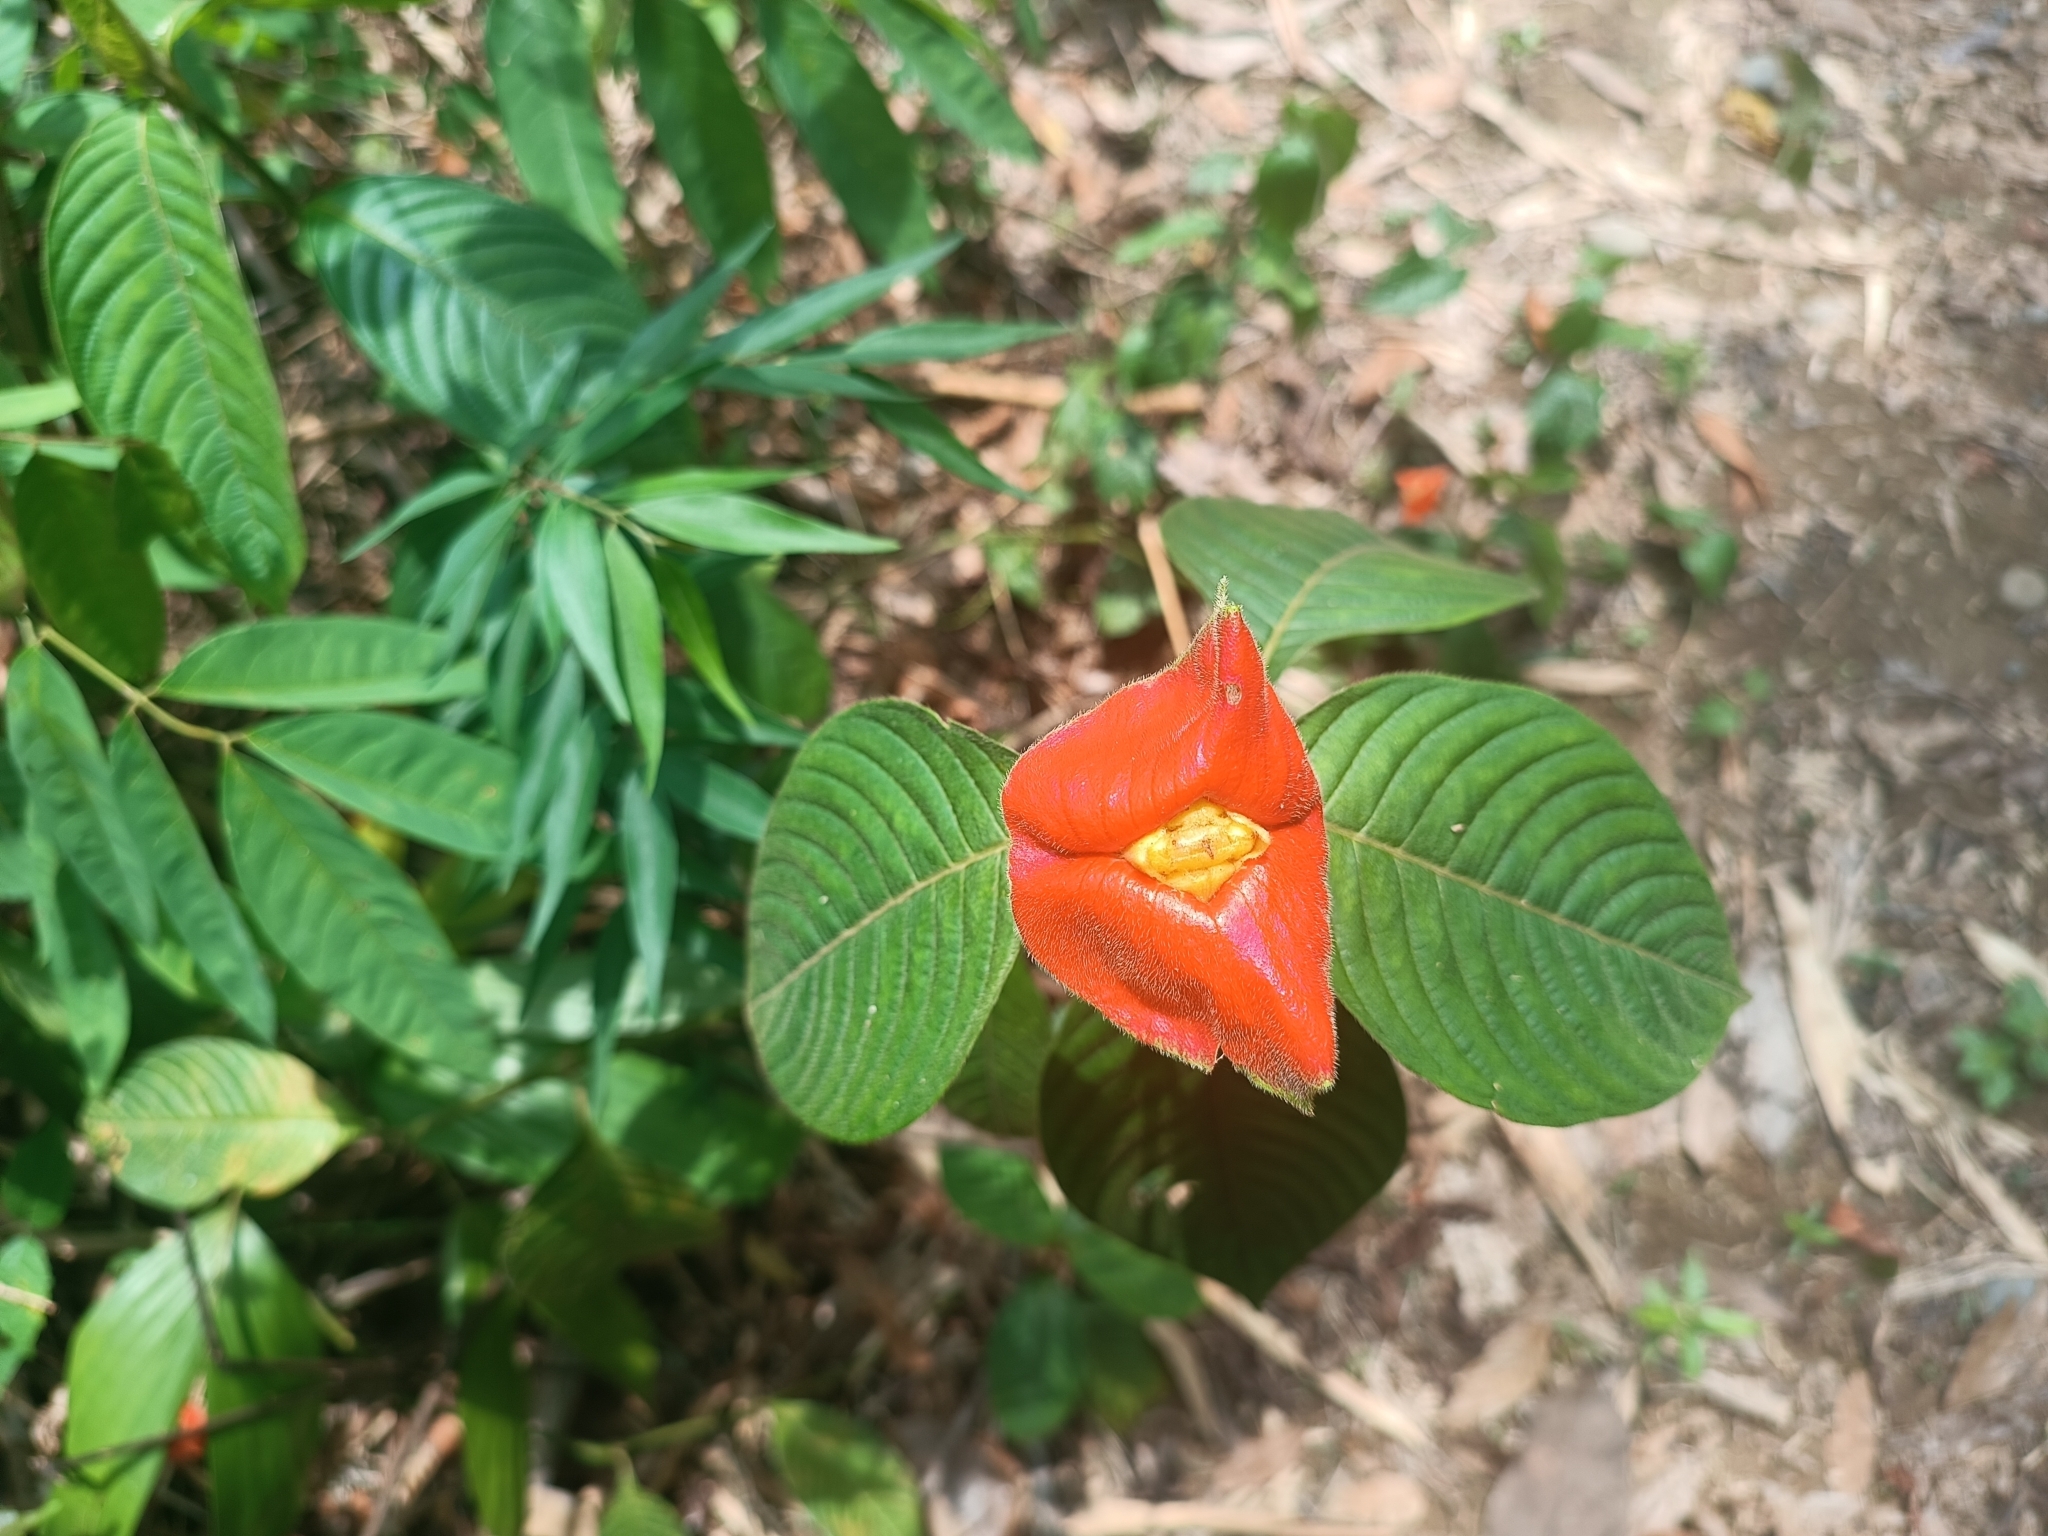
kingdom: Plantae
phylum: Tracheophyta
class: Magnoliopsida
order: Gentianales
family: Rubiaceae
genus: Palicourea
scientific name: Palicourea tomentosa
